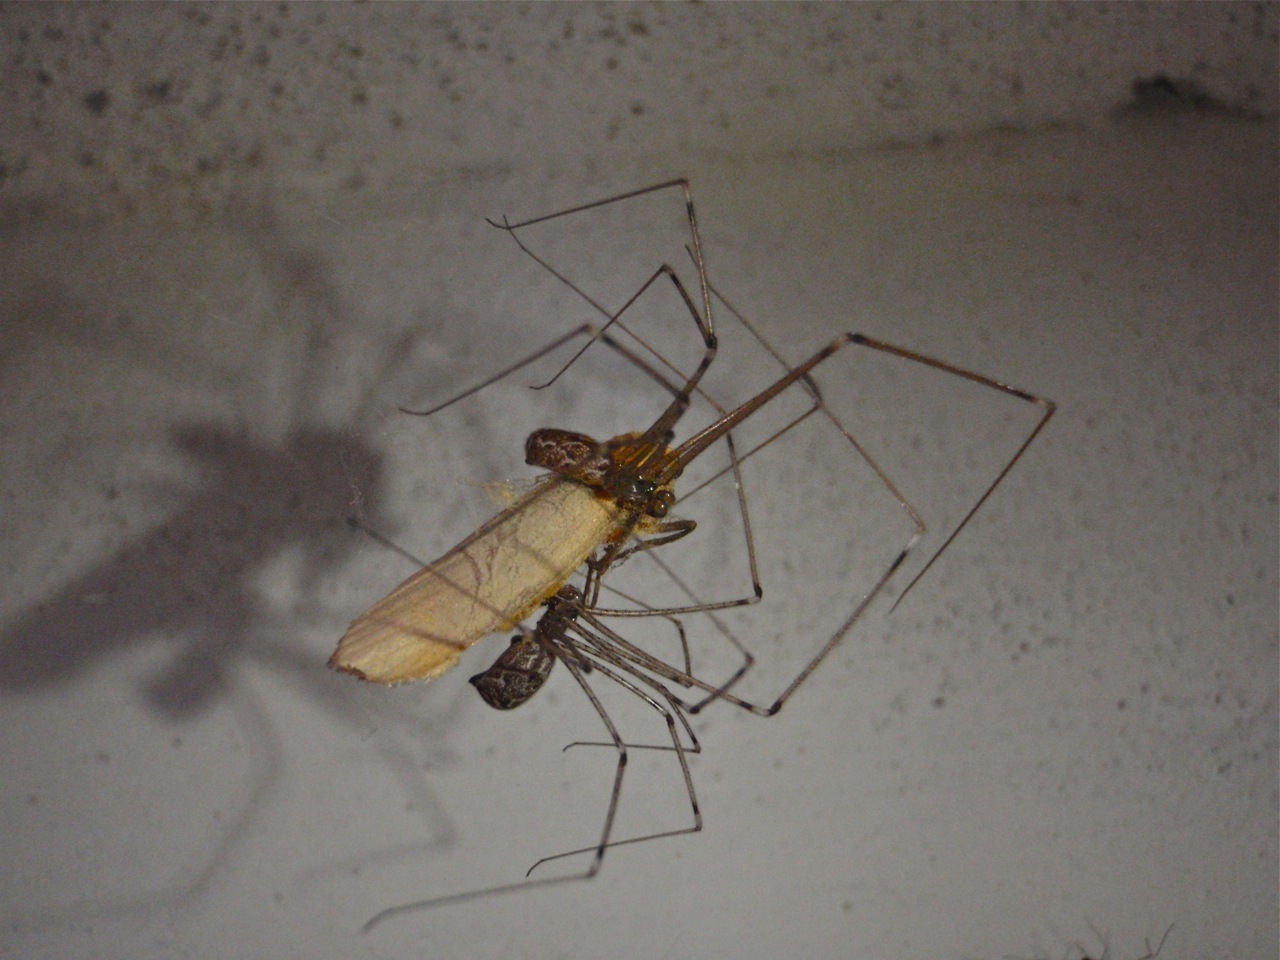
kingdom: Animalia
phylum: Arthropoda
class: Arachnida
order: Araneae
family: Pholcidae
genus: Holocnemus
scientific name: Holocnemus pluchei
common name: Marbled cellar spider
